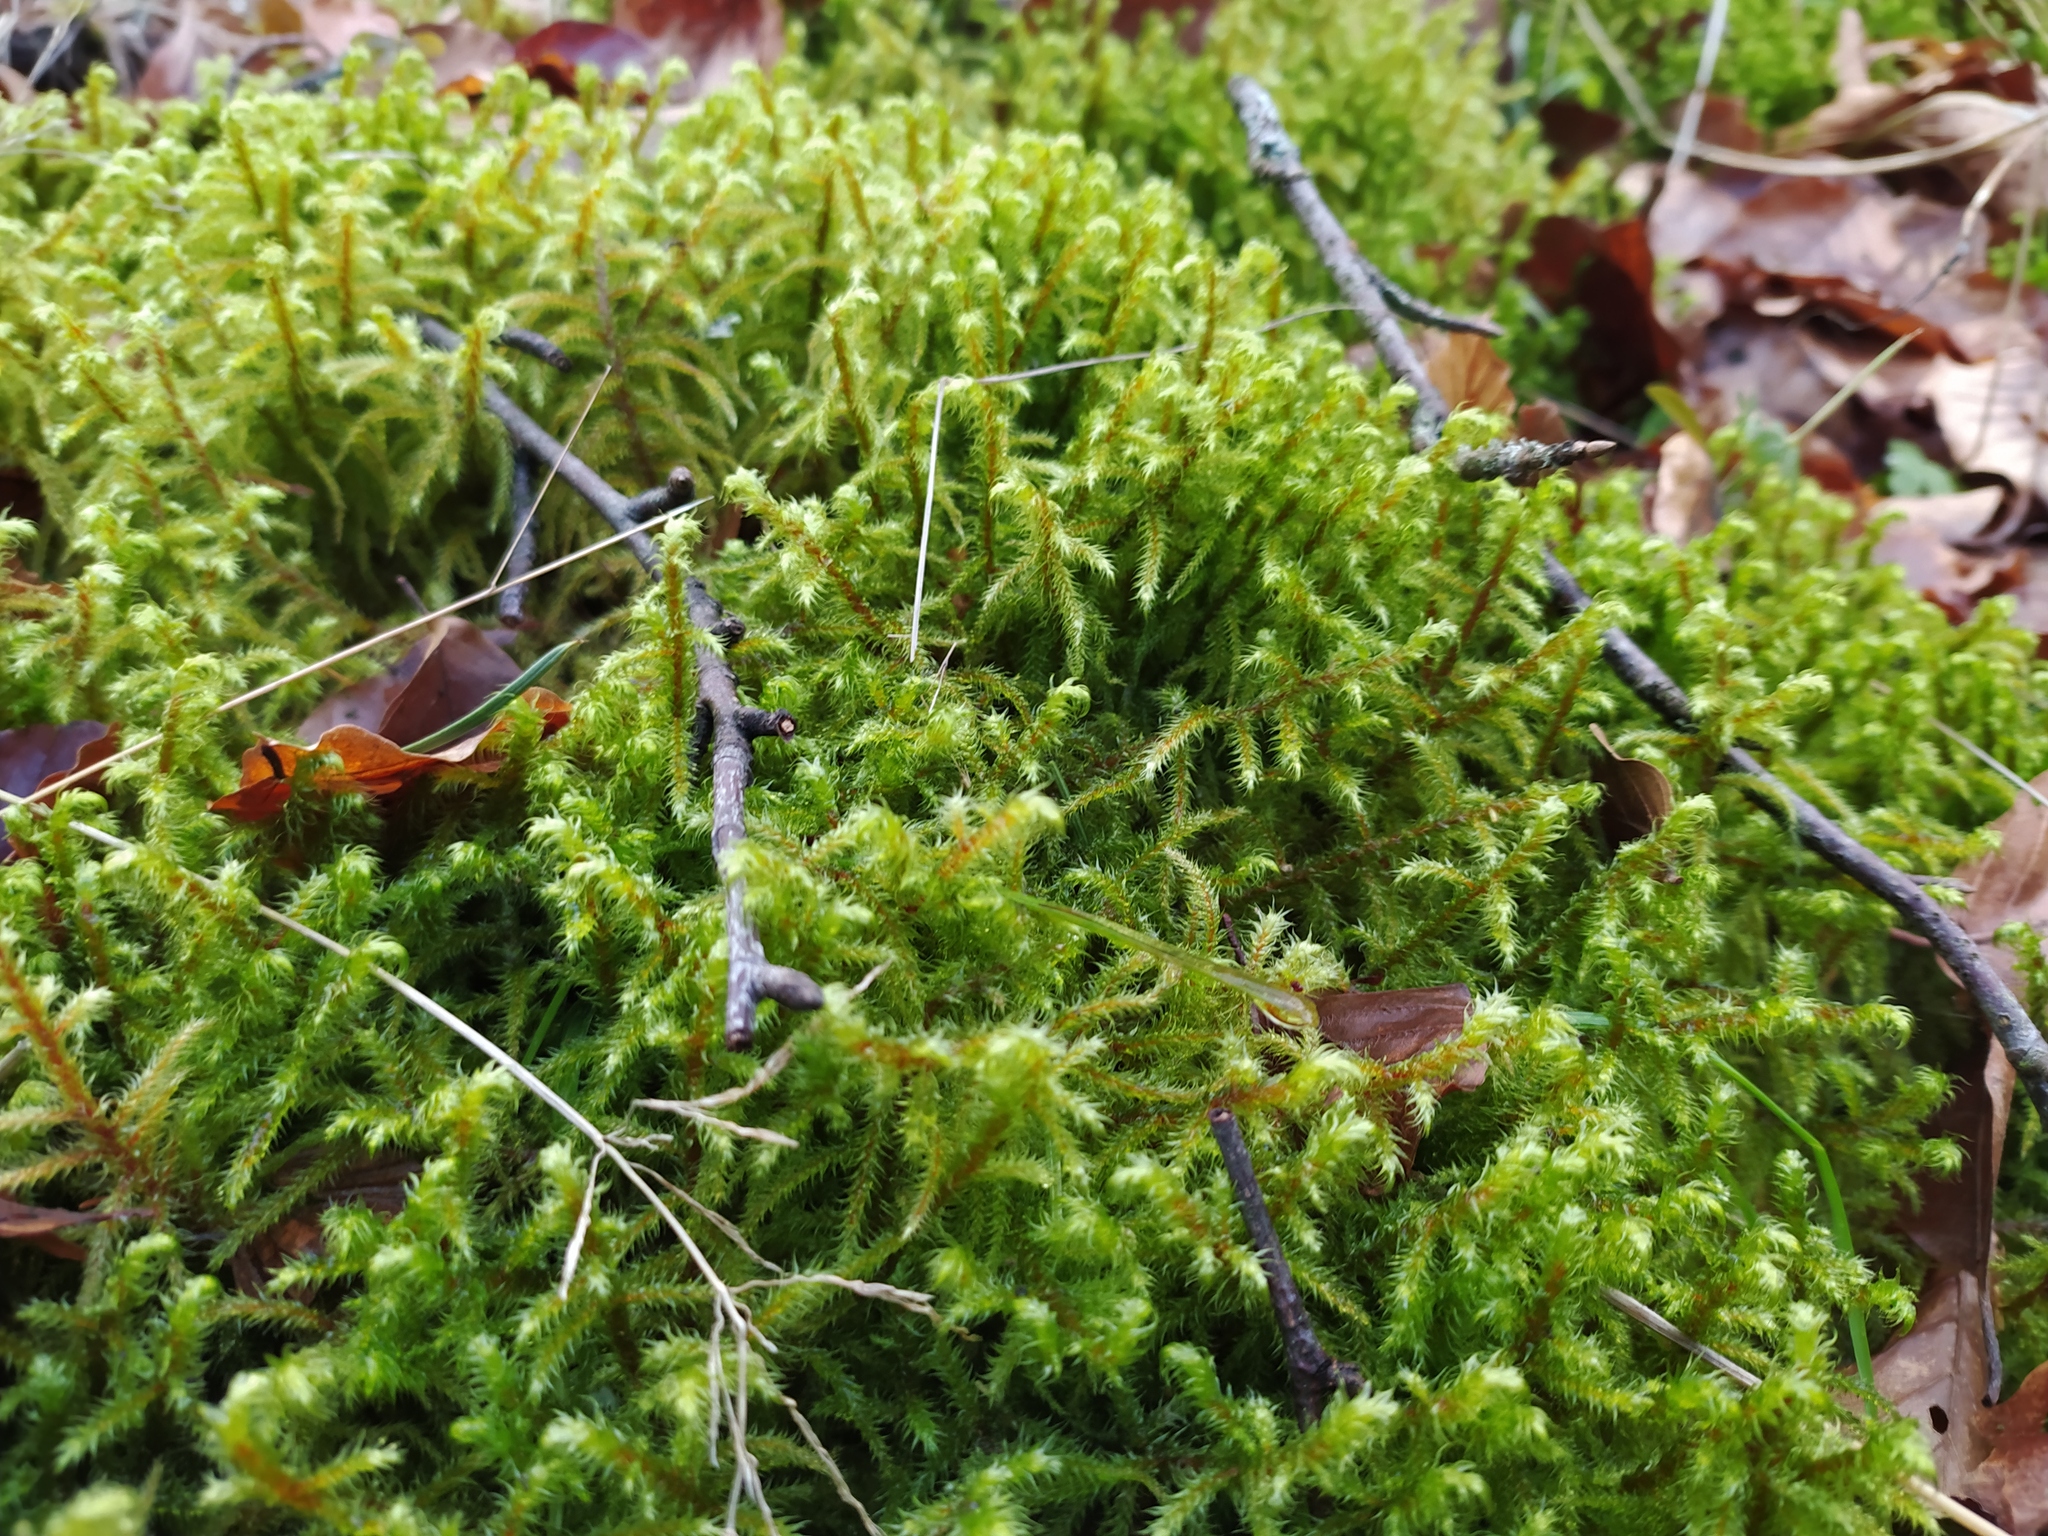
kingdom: Plantae
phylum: Bryophyta
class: Bryopsida
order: Hypnales
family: Hylocomiaceae
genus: Rhytidiadelphus
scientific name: Rhytidiadelphus loreus
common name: Lanky moss
